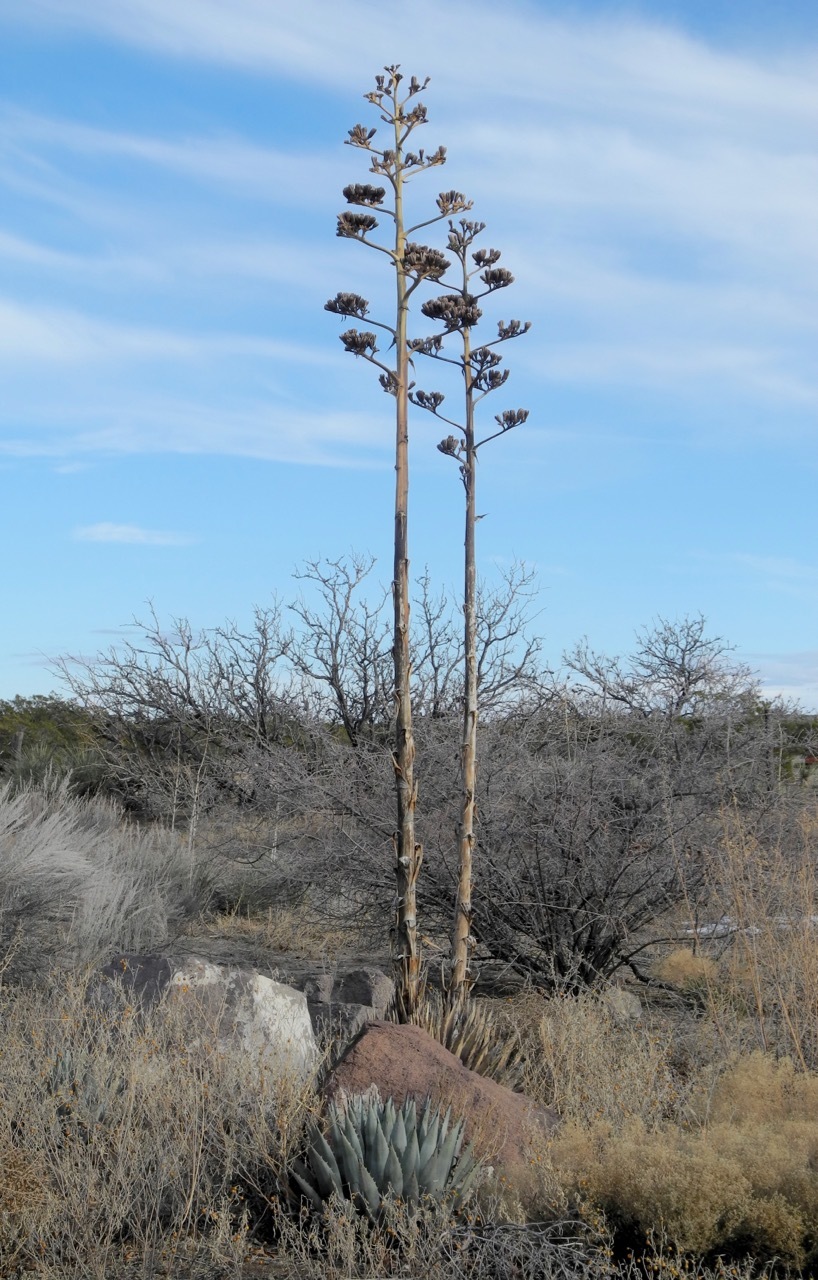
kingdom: Plantae
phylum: Tracheophyta
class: Liliopsida
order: Asparagales
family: Asparagaceae
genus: Agave
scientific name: Agave parryi
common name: Parry's agave
